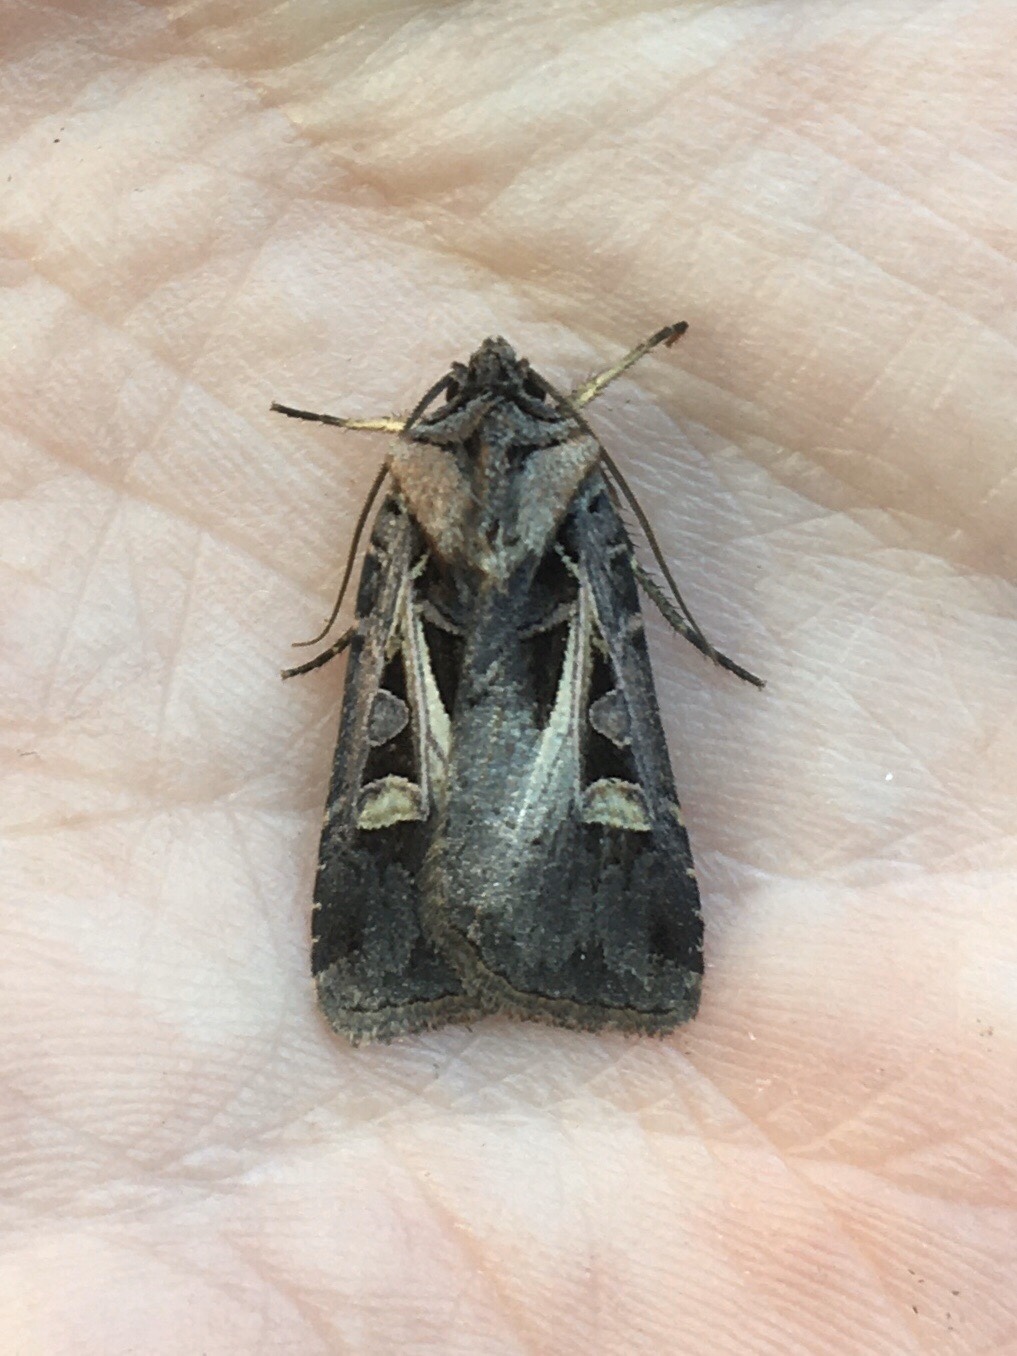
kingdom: Animalia
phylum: Arthropoda
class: Insecta
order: Lepidoptera
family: Noctuidae
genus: Feltia
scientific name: Feltia herilis
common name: Master's dart
